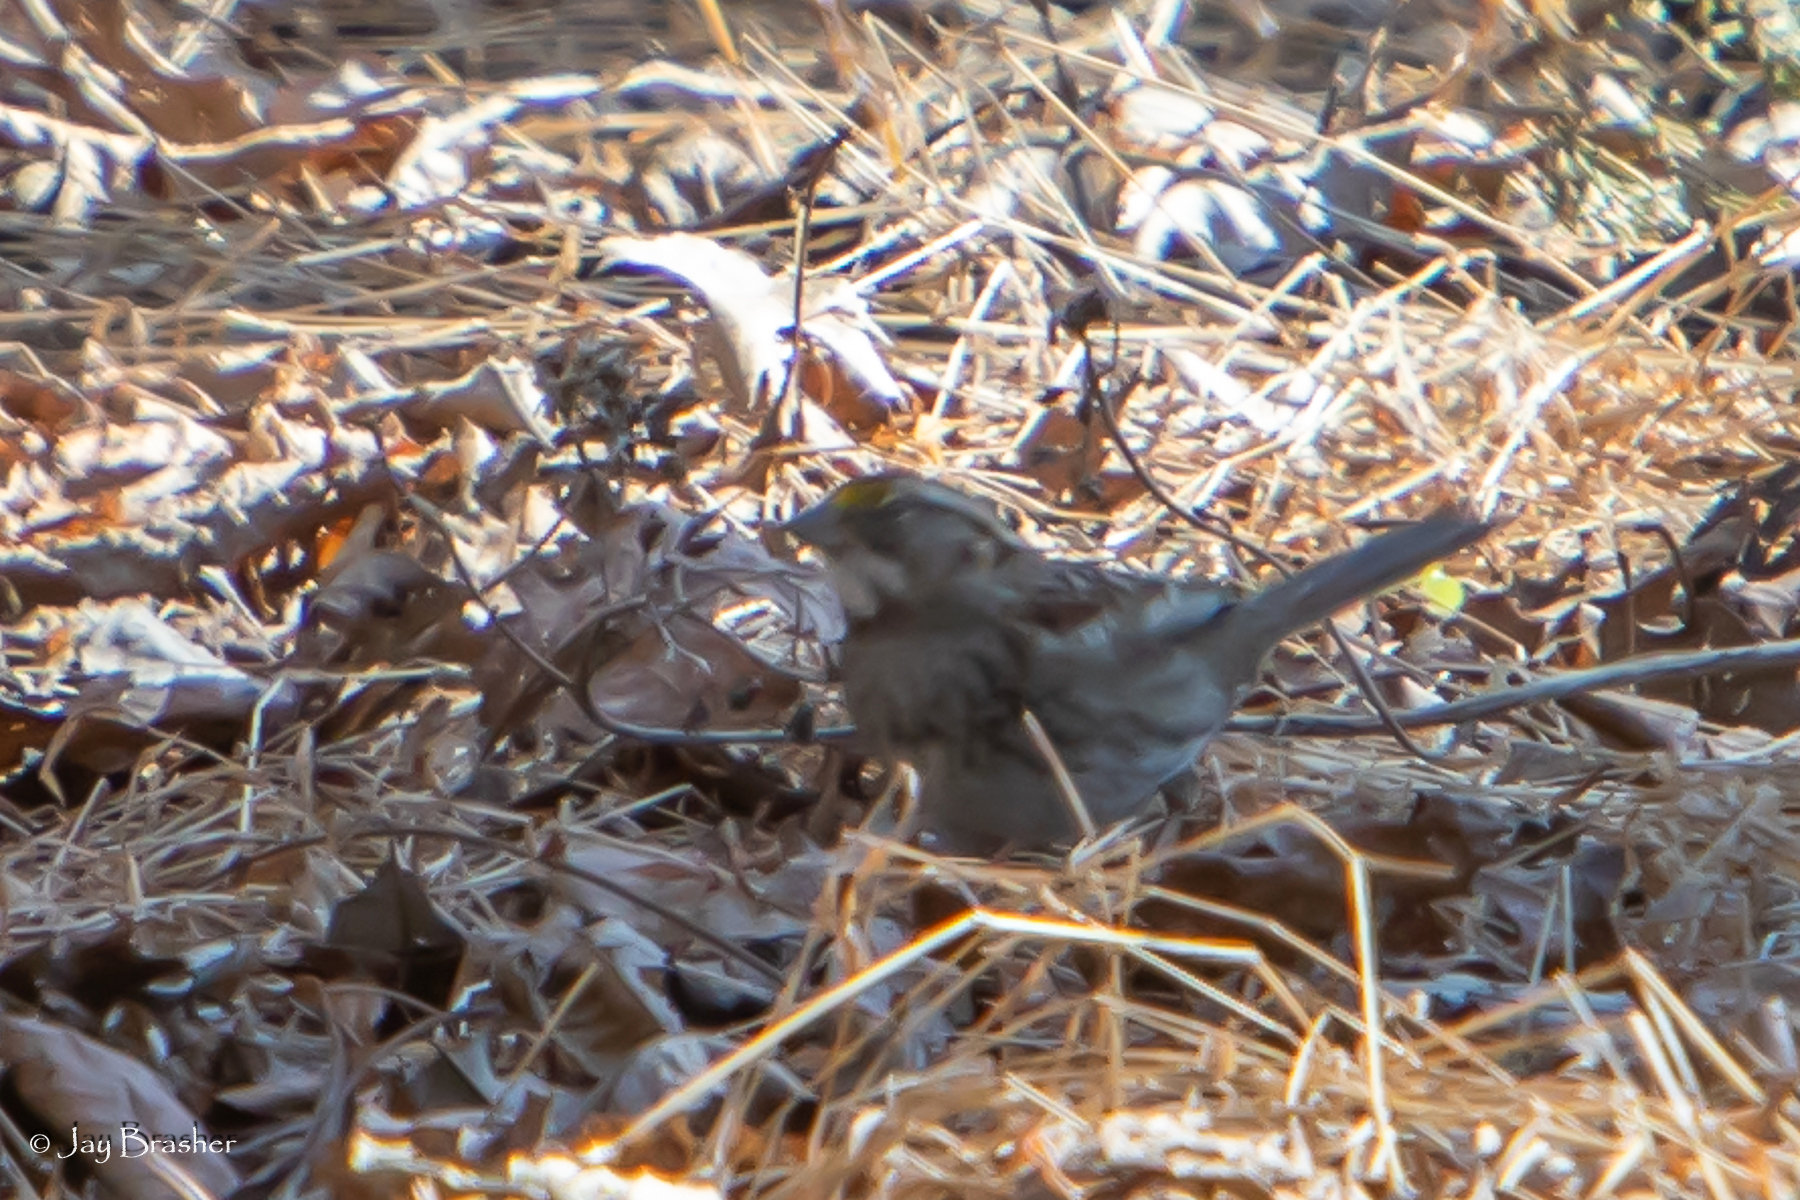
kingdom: Animalia
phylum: Chordata
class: Aves
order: Passeriformes
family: Passerellidae
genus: Zonotrichia
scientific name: Zonotrichia albicollis
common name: White-throated sparrow
